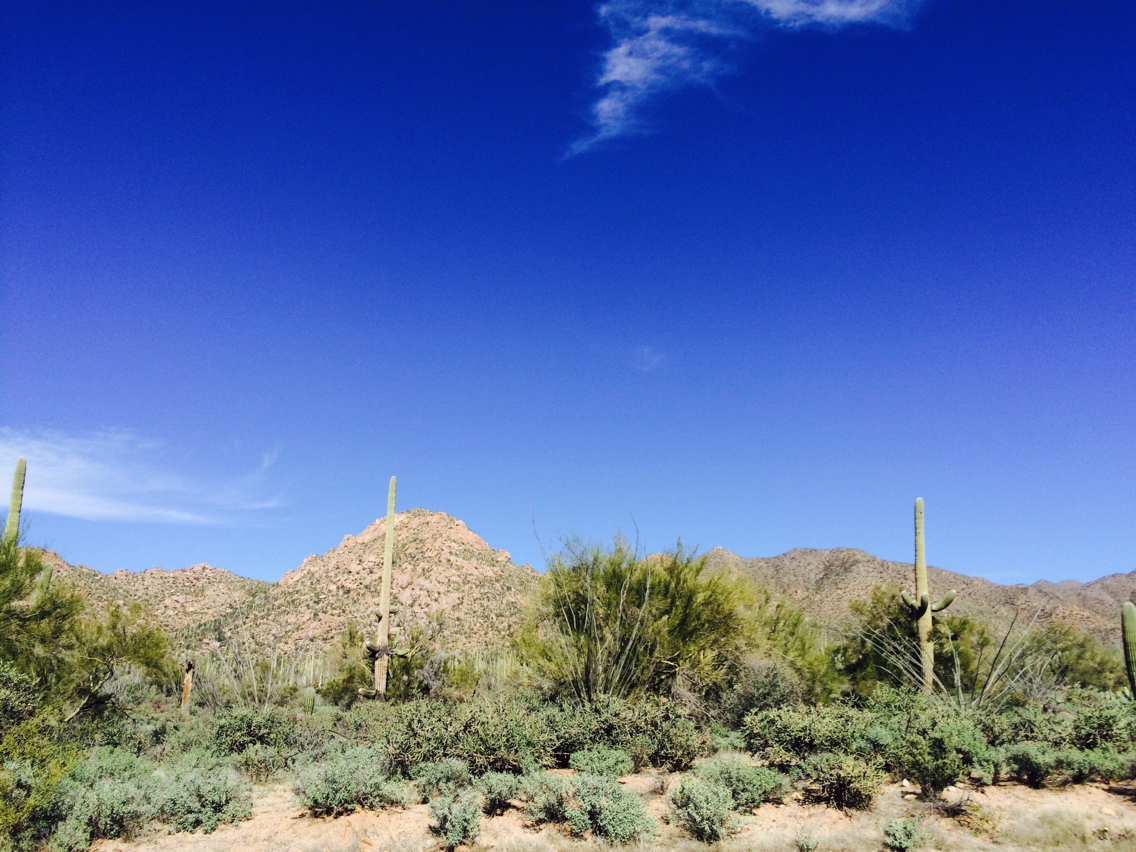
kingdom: Plantae
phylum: Tracheophyta
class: Magnoliopsida
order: Caryophyllales
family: Cactaceae
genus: Carnegiea
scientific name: Carnegiea gigantea
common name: Saguaro
